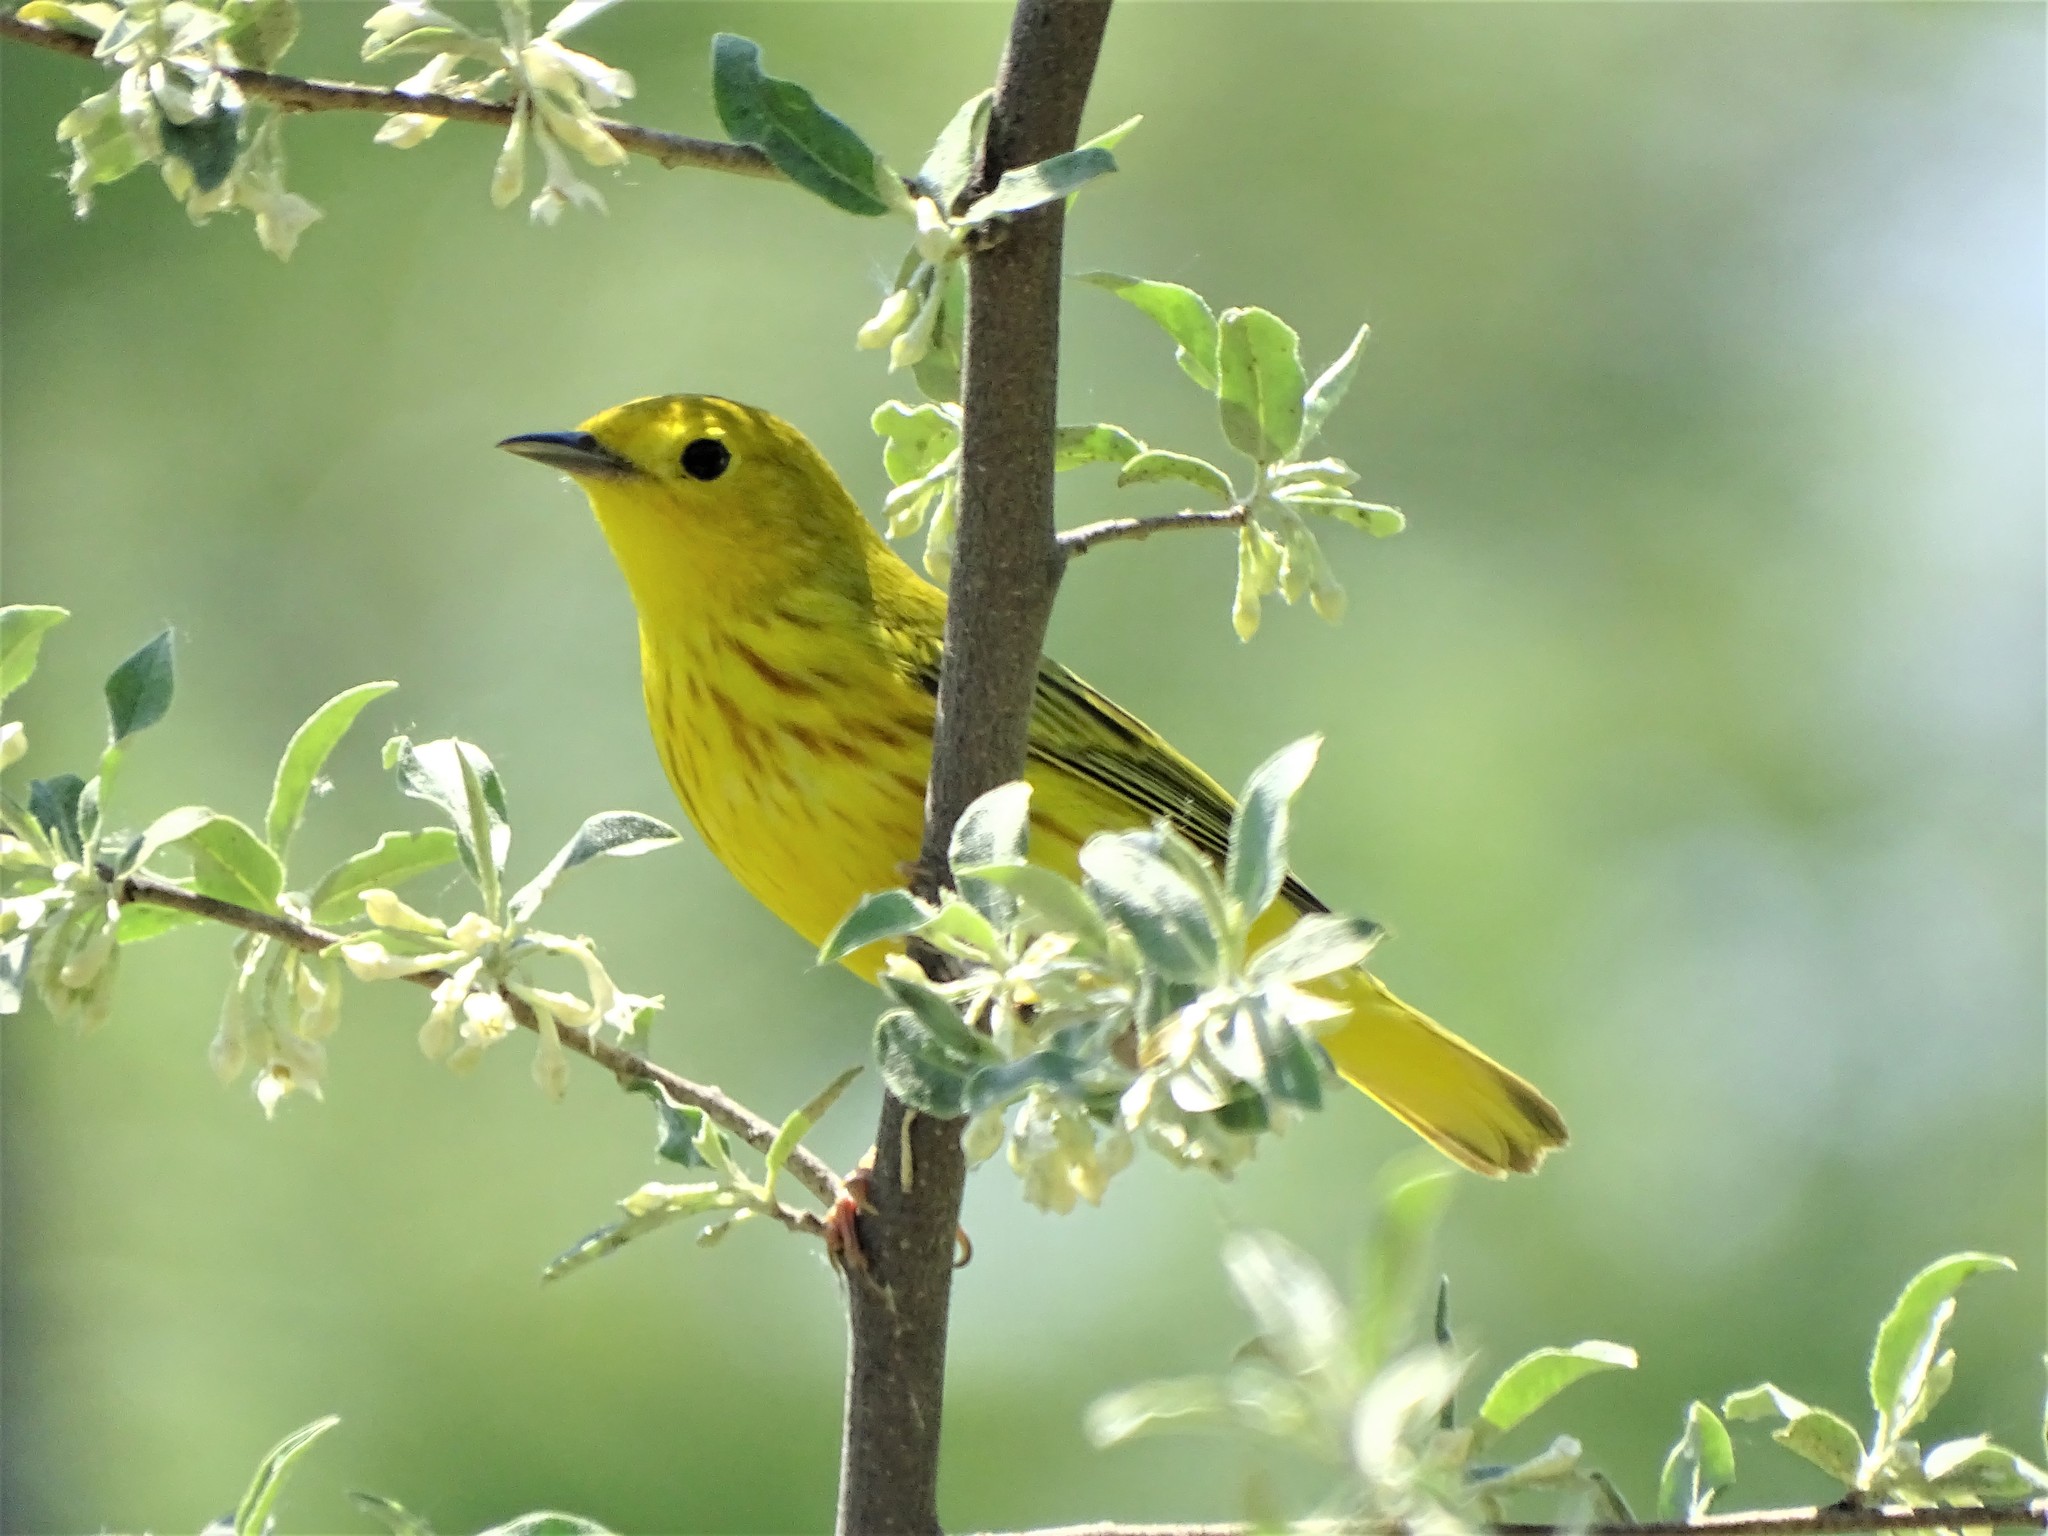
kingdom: Animalia
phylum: Chordata
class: Aves
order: Passeriformes
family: Parulidae
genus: Setophaga
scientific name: Setophaga petechia
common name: Yellow warbler
